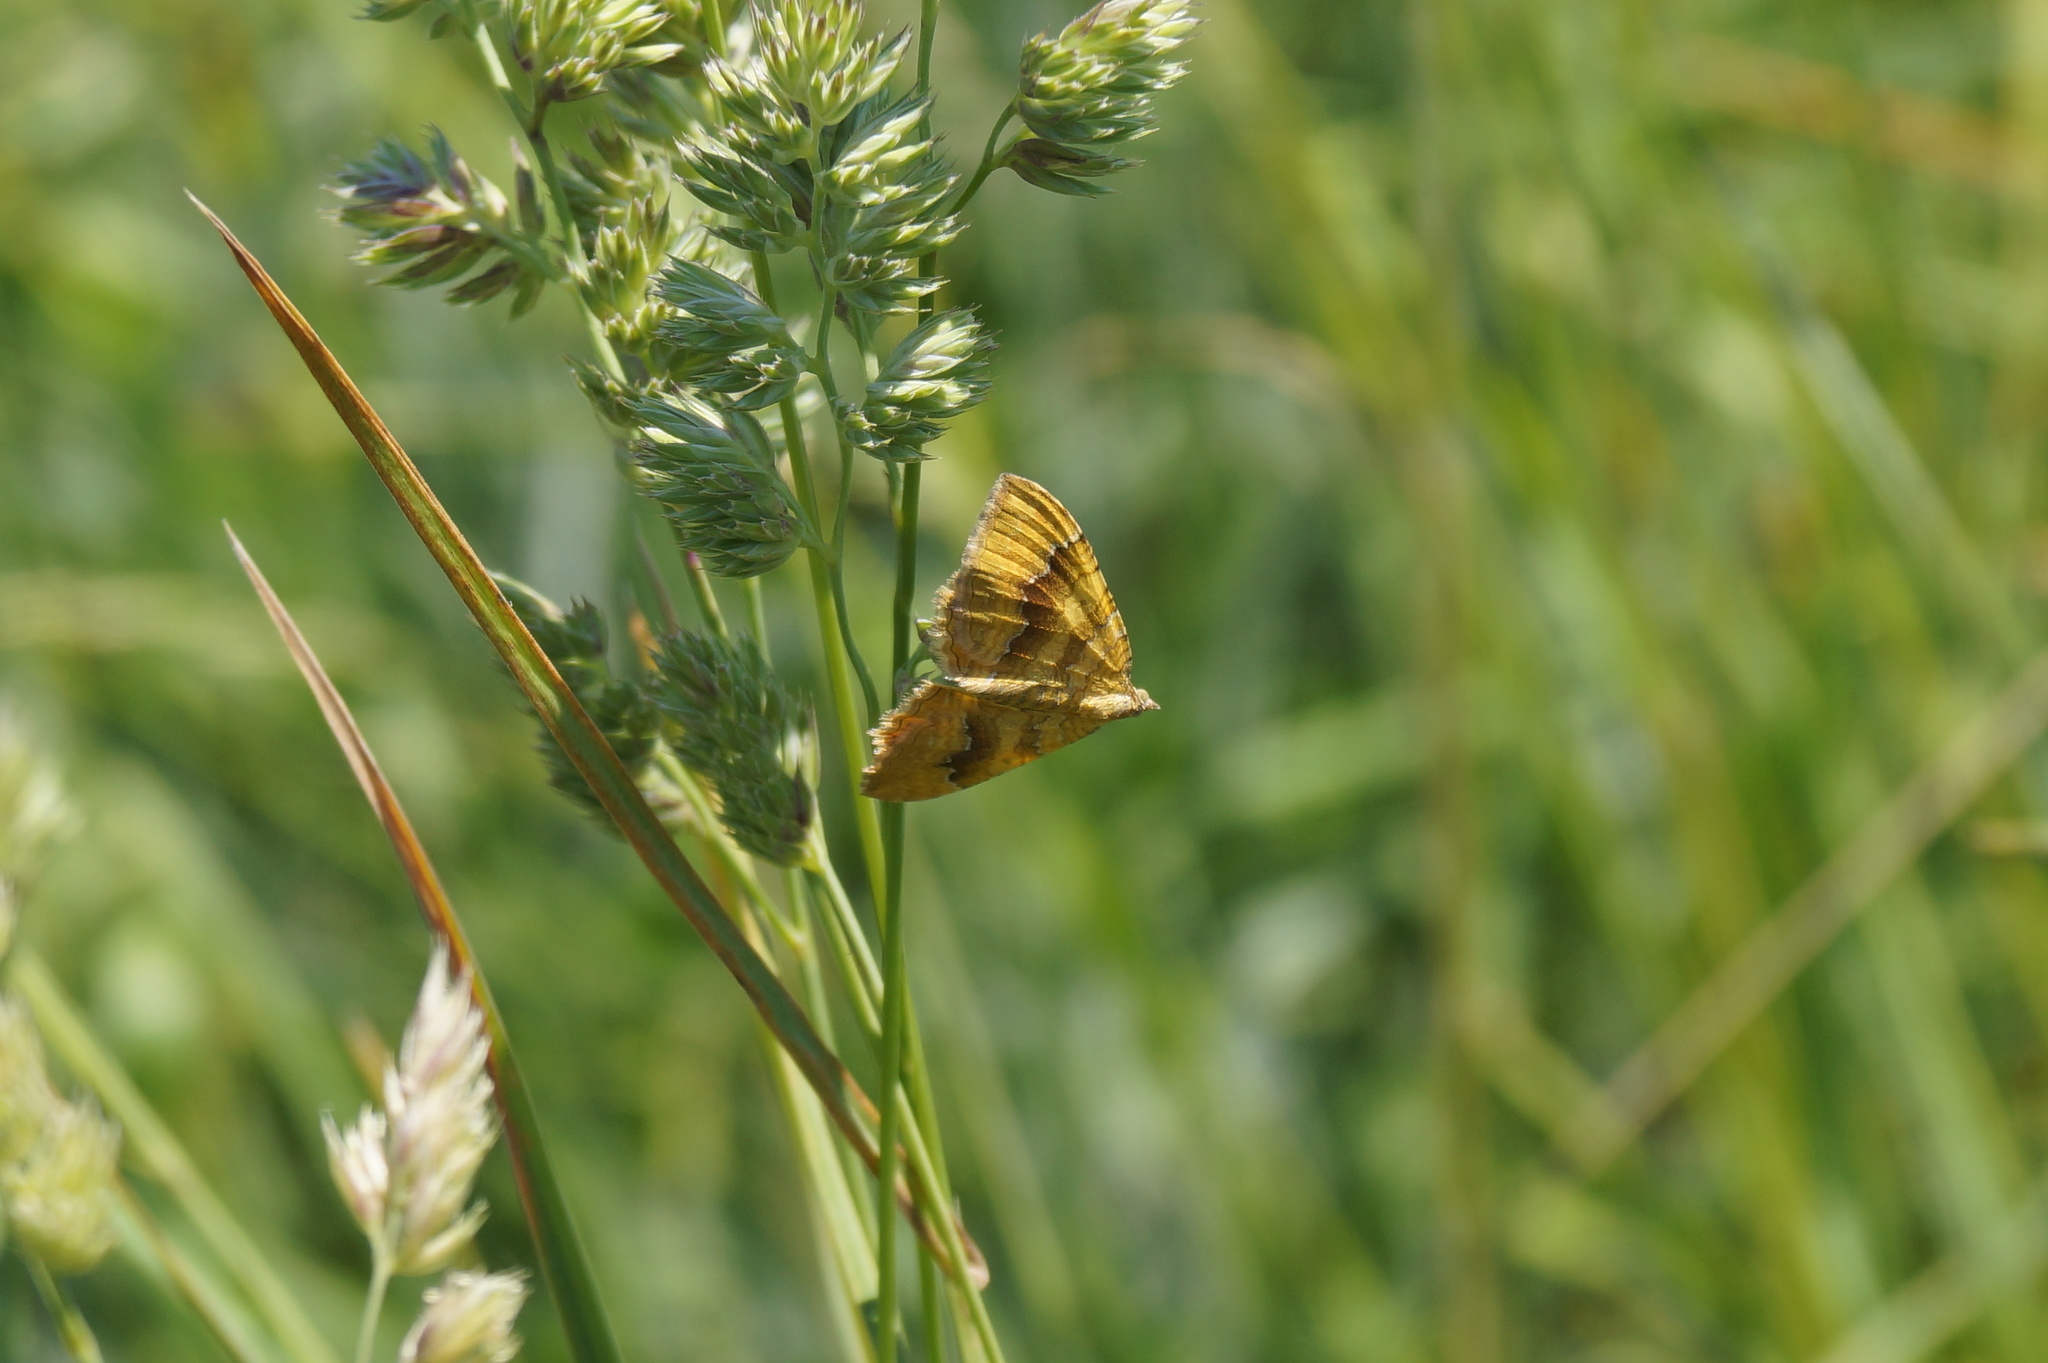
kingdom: Animalia
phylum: Arthropoda
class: Insecta
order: Lepidoptera
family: Geometridae
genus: Camptogramma
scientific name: Camptogramma bilineata
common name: Yellow shell
